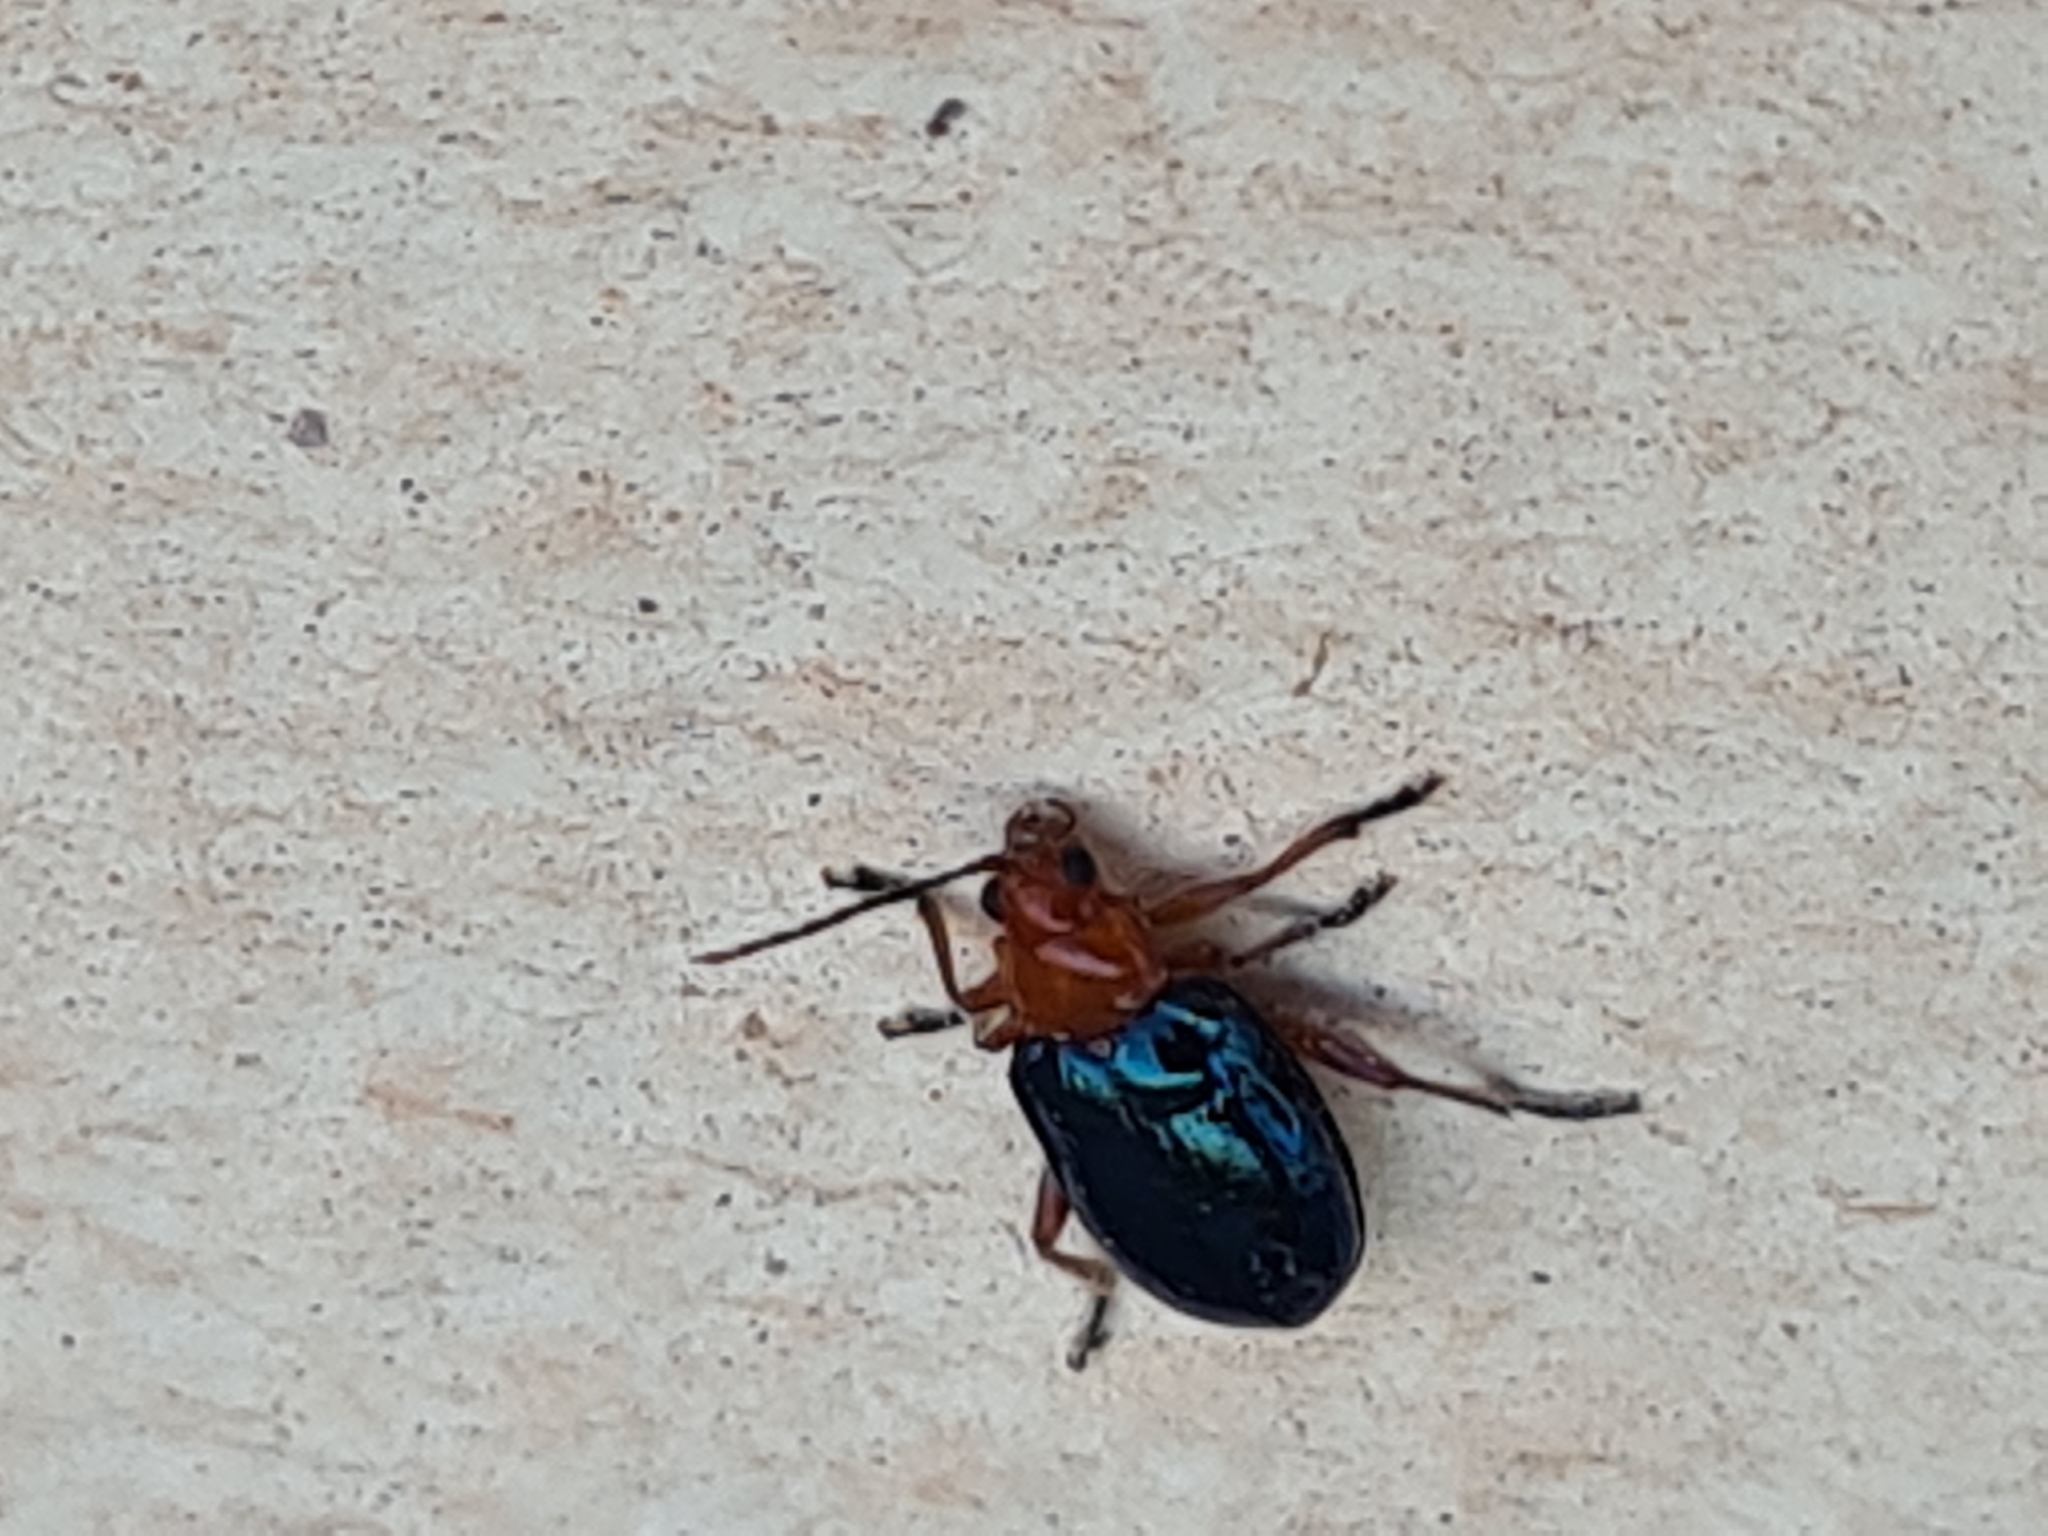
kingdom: Animalia
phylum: Arthropoda
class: Insecta
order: Coleoptera
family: Chrysomelidae
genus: Cacoscelis
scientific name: Cacoscelis marginata
